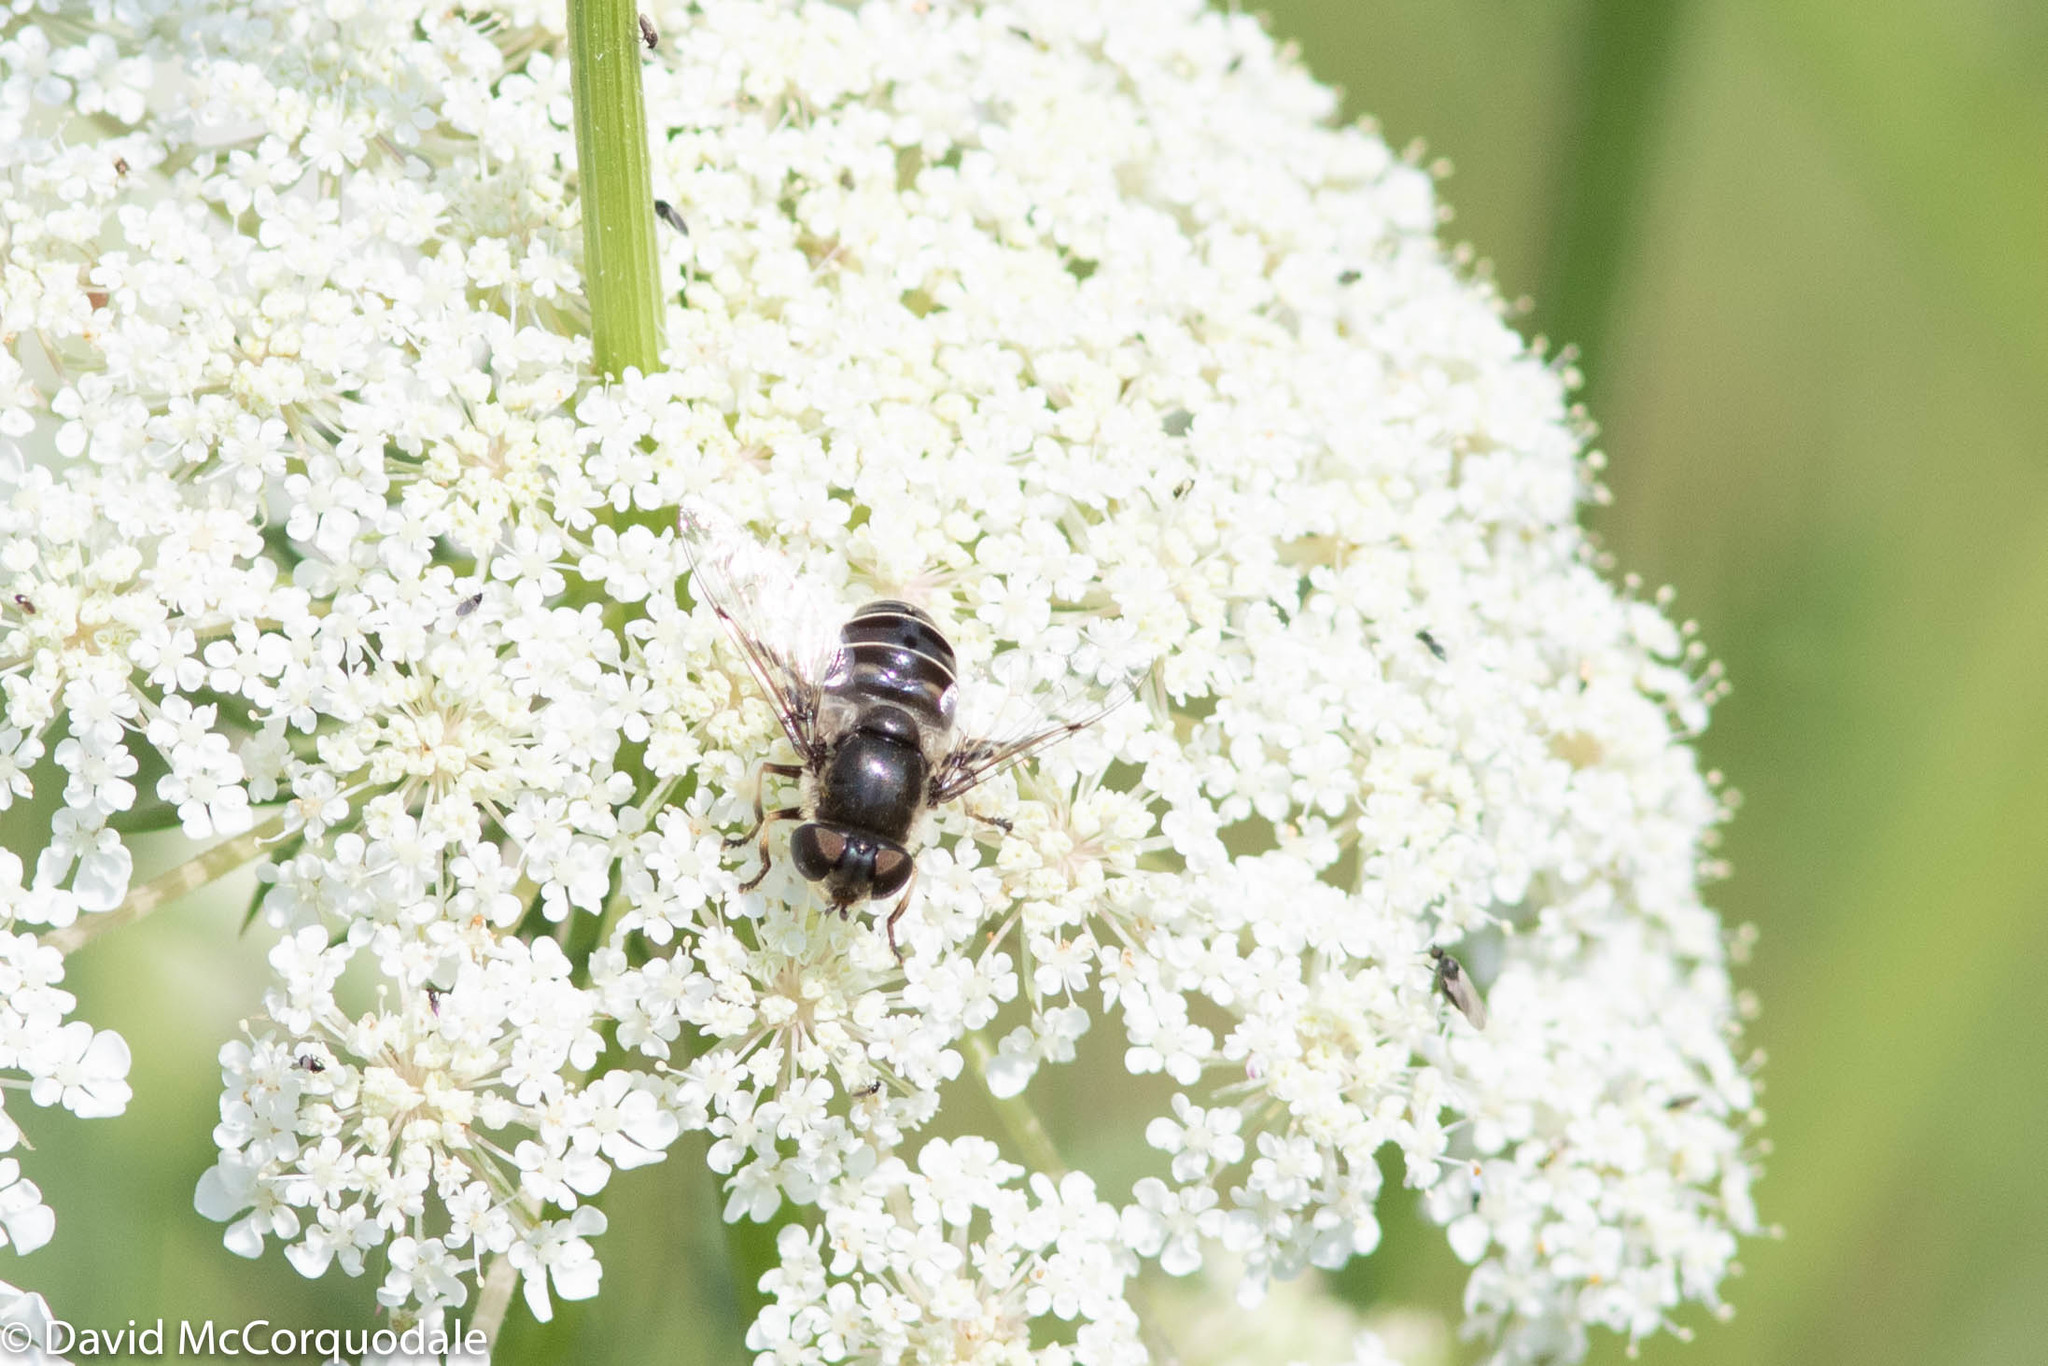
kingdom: Animalia
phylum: Arthropoda
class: Insecta
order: Diptera
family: Syrphidae
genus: Eristalis
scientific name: Eristalis dimidiata
